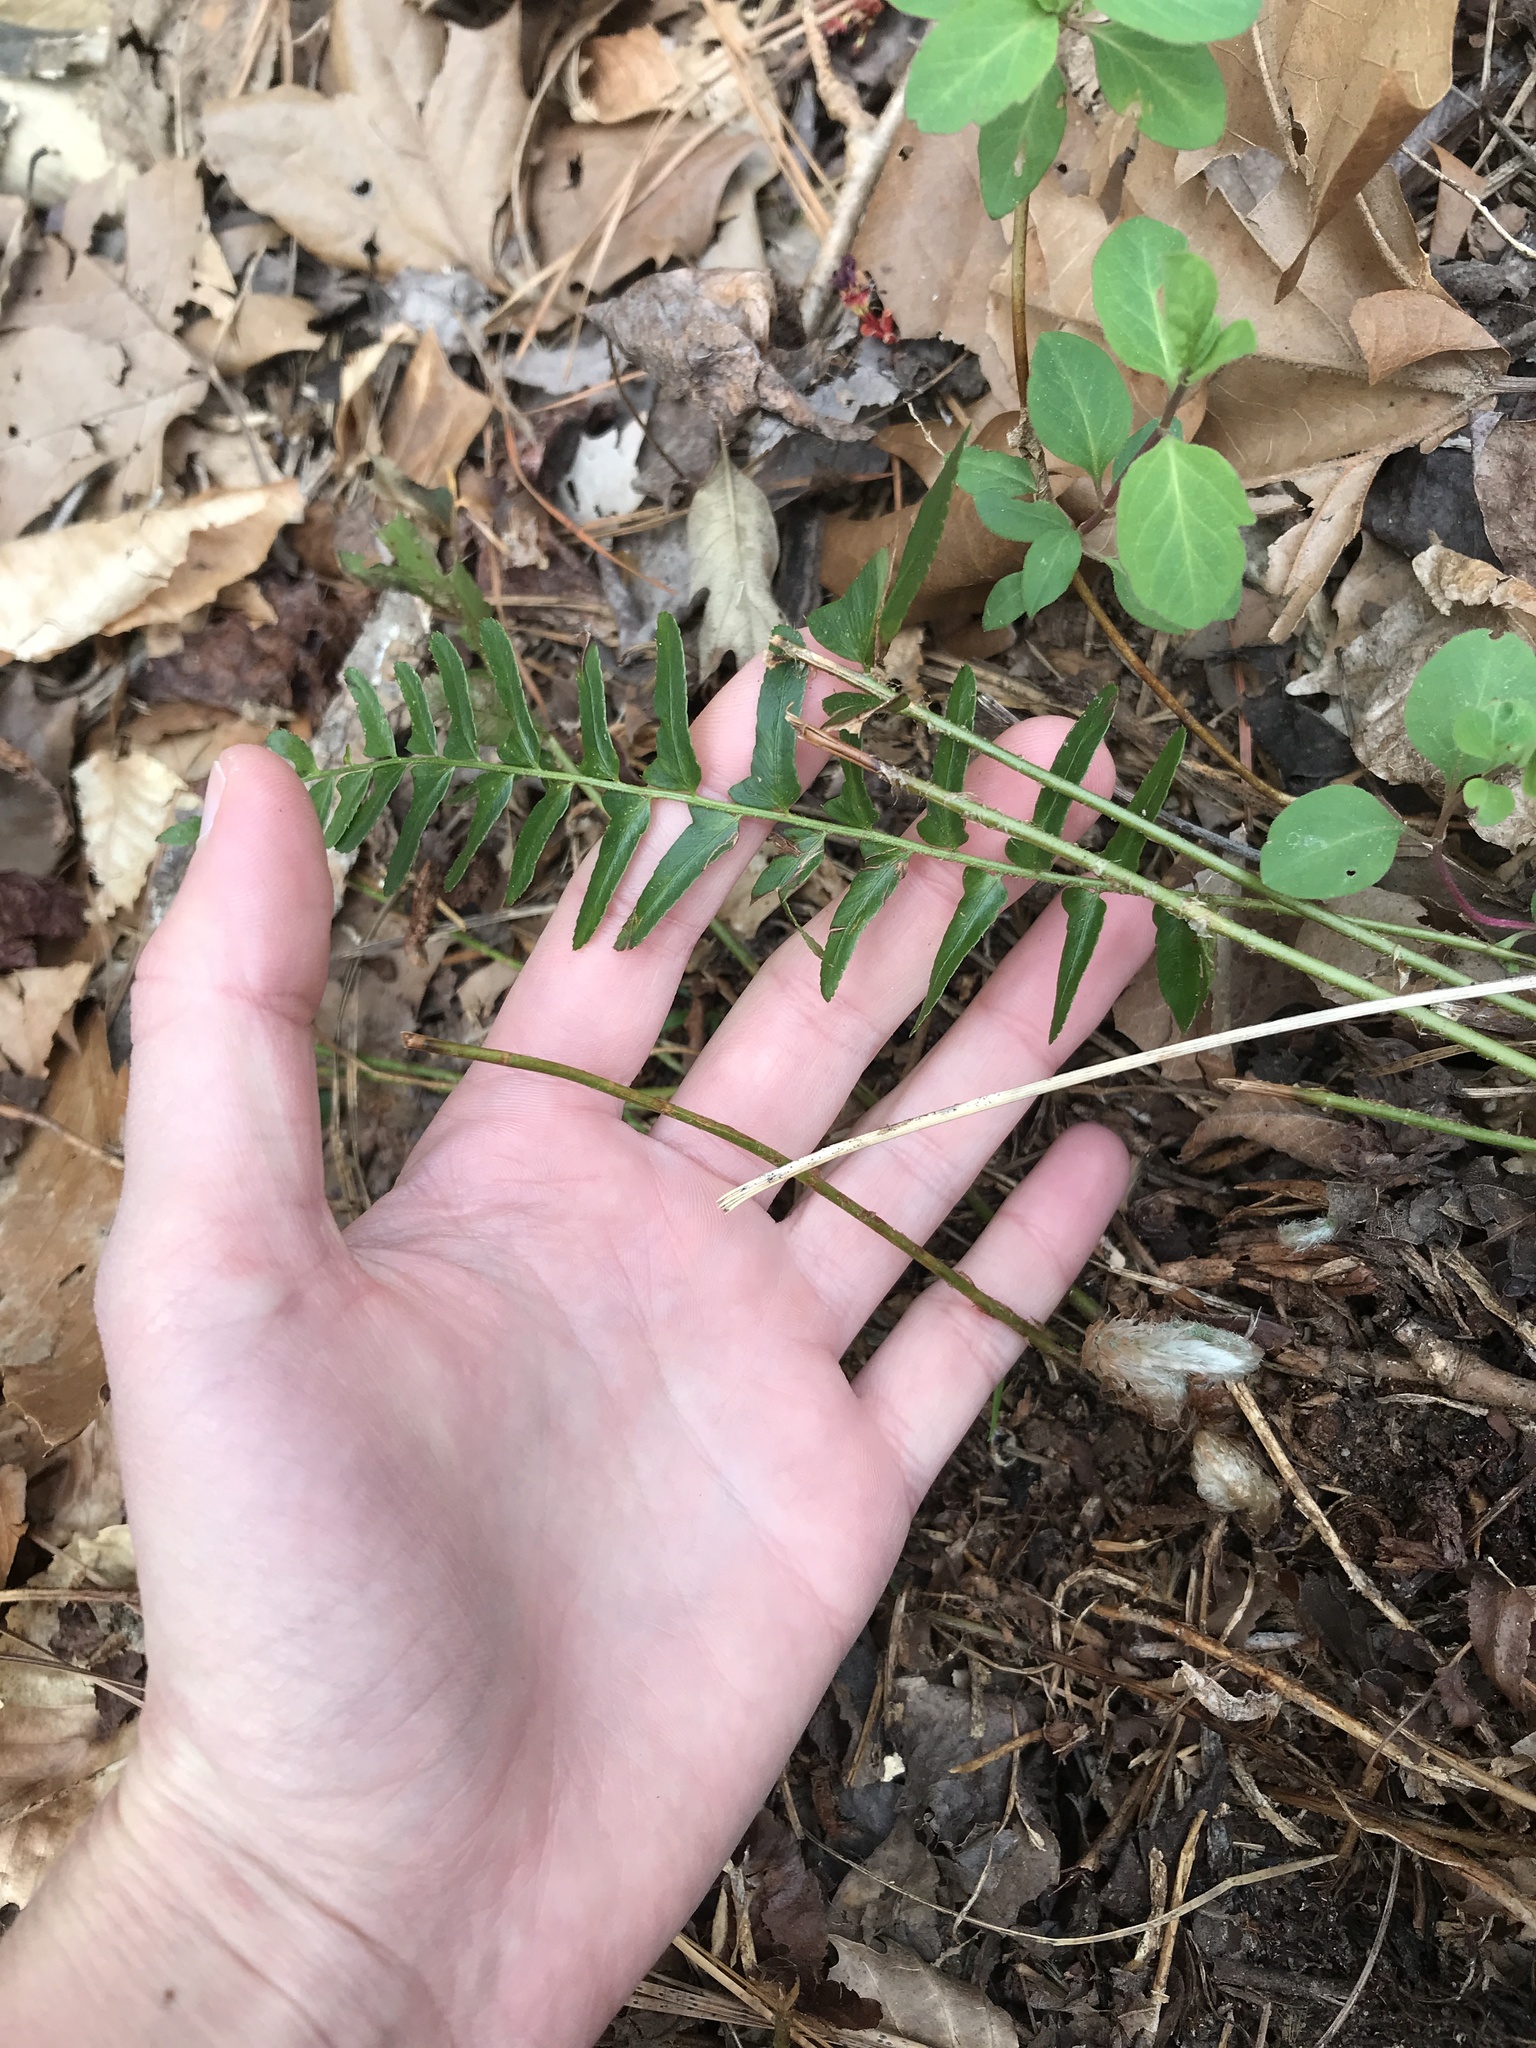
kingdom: Plantae
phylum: Tracheophyta
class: Polypodiopsida
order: Polypodiales
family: Dryopteridaceae
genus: Polystichum
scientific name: Polystichum acrostichoides
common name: Christmas fern
